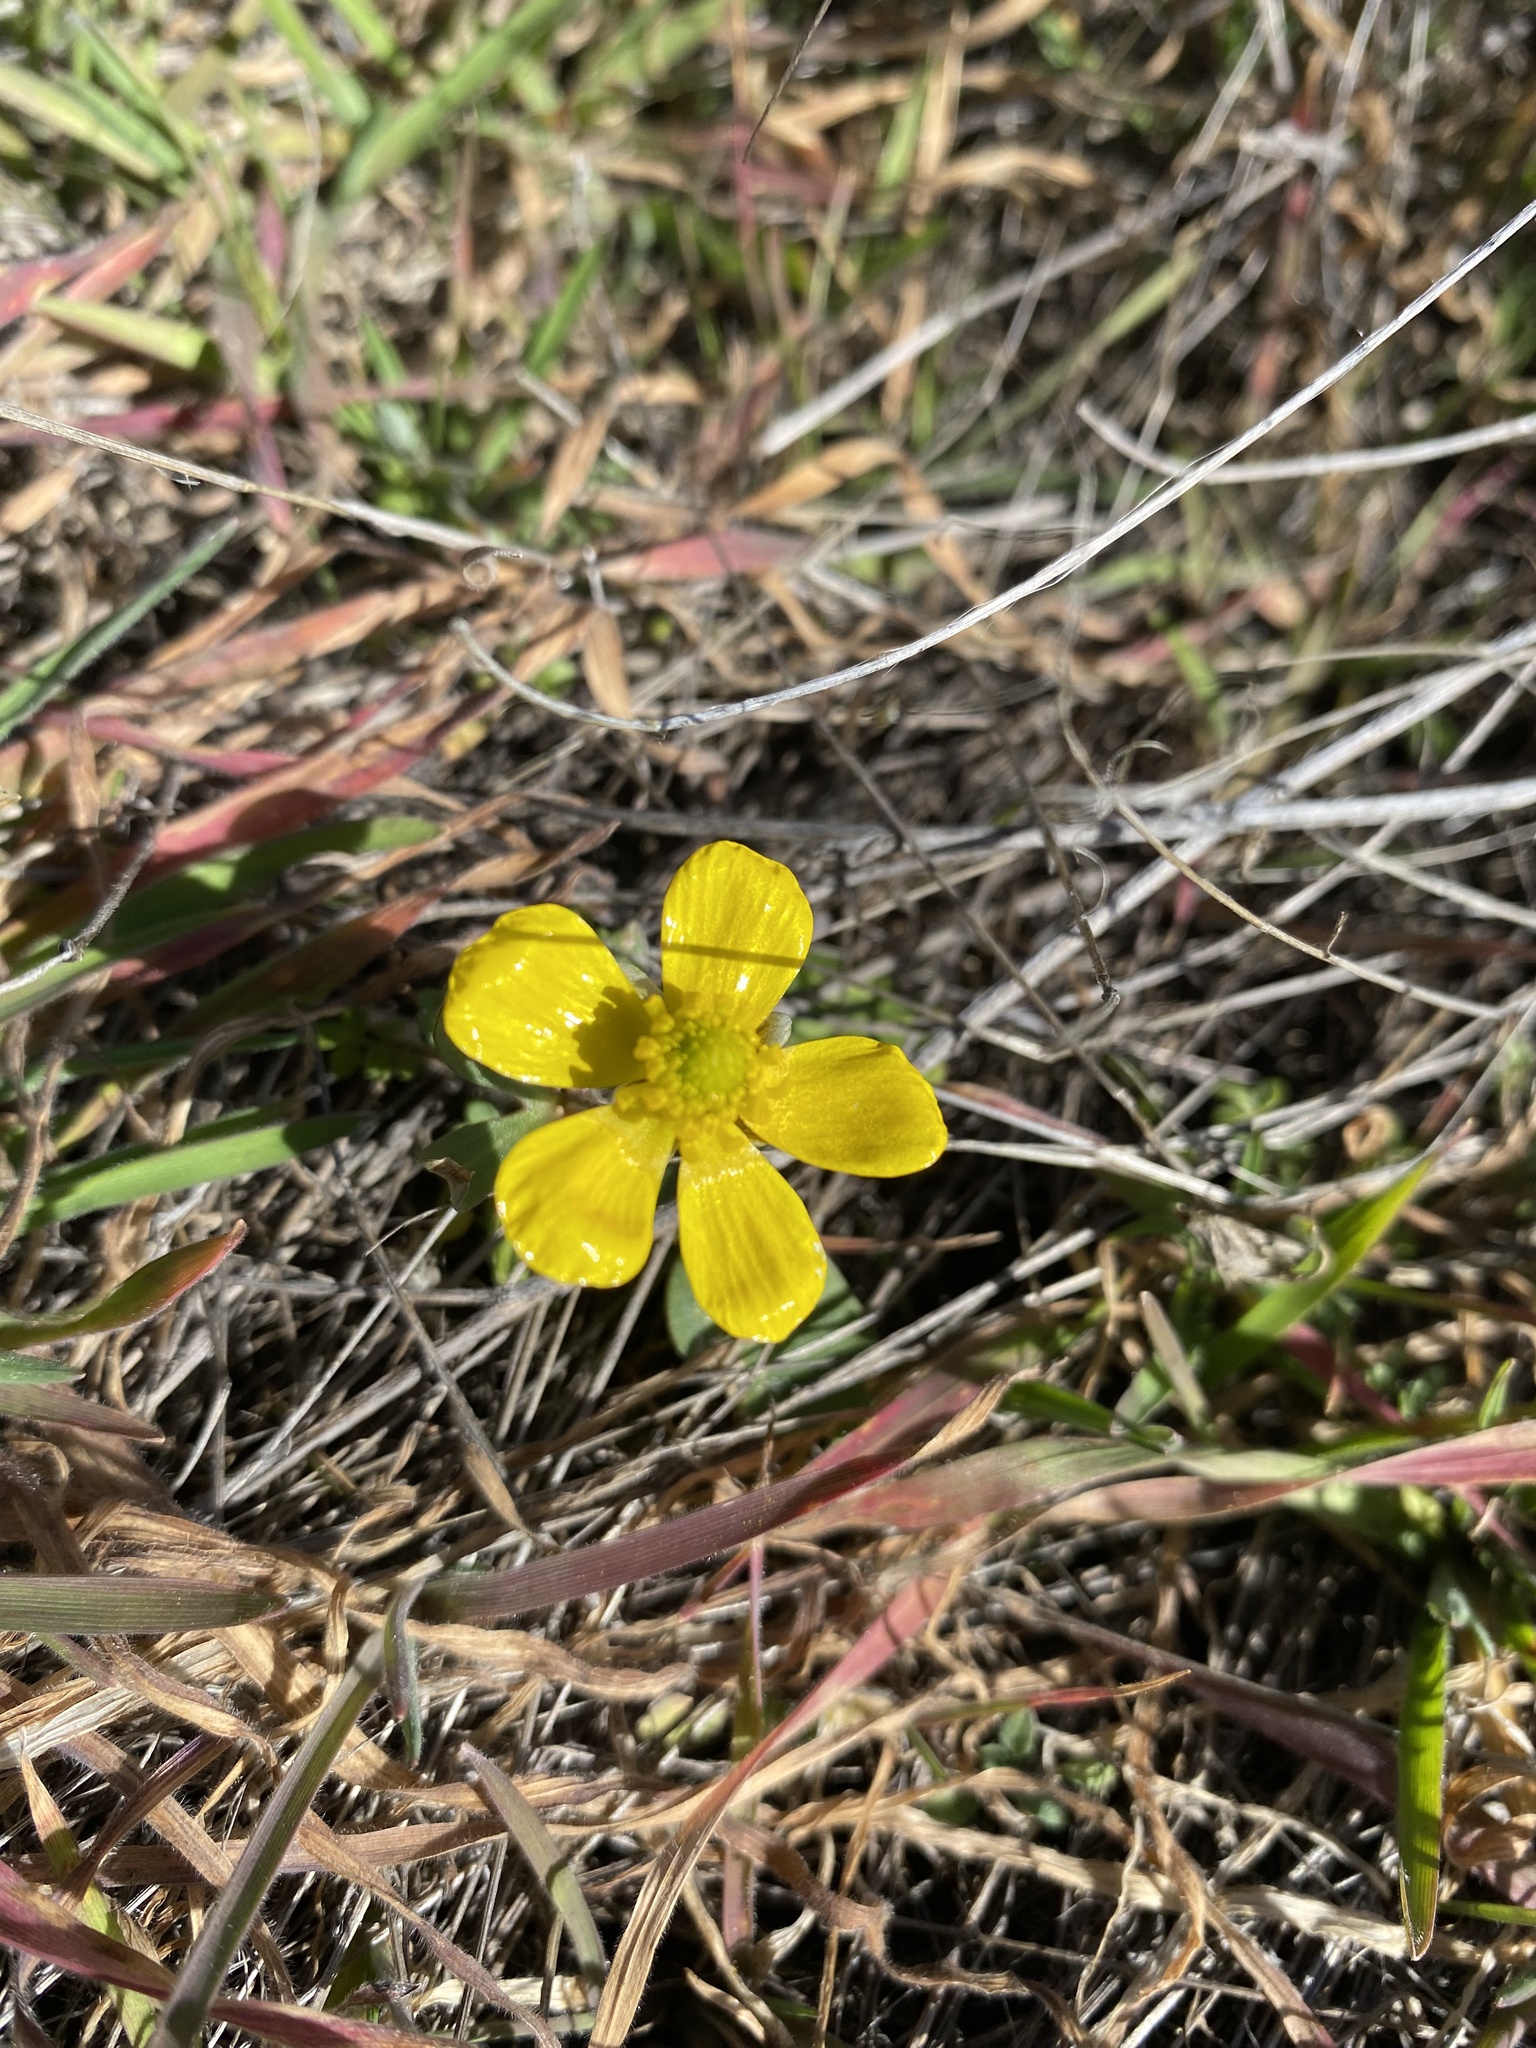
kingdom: Plantae
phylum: Tracheophyta
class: Magnoliopsida
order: Ranunculales
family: Ranunculaceae
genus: Ranunculus
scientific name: Ranunculus glaberrimus
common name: Sagebrush buttercup
